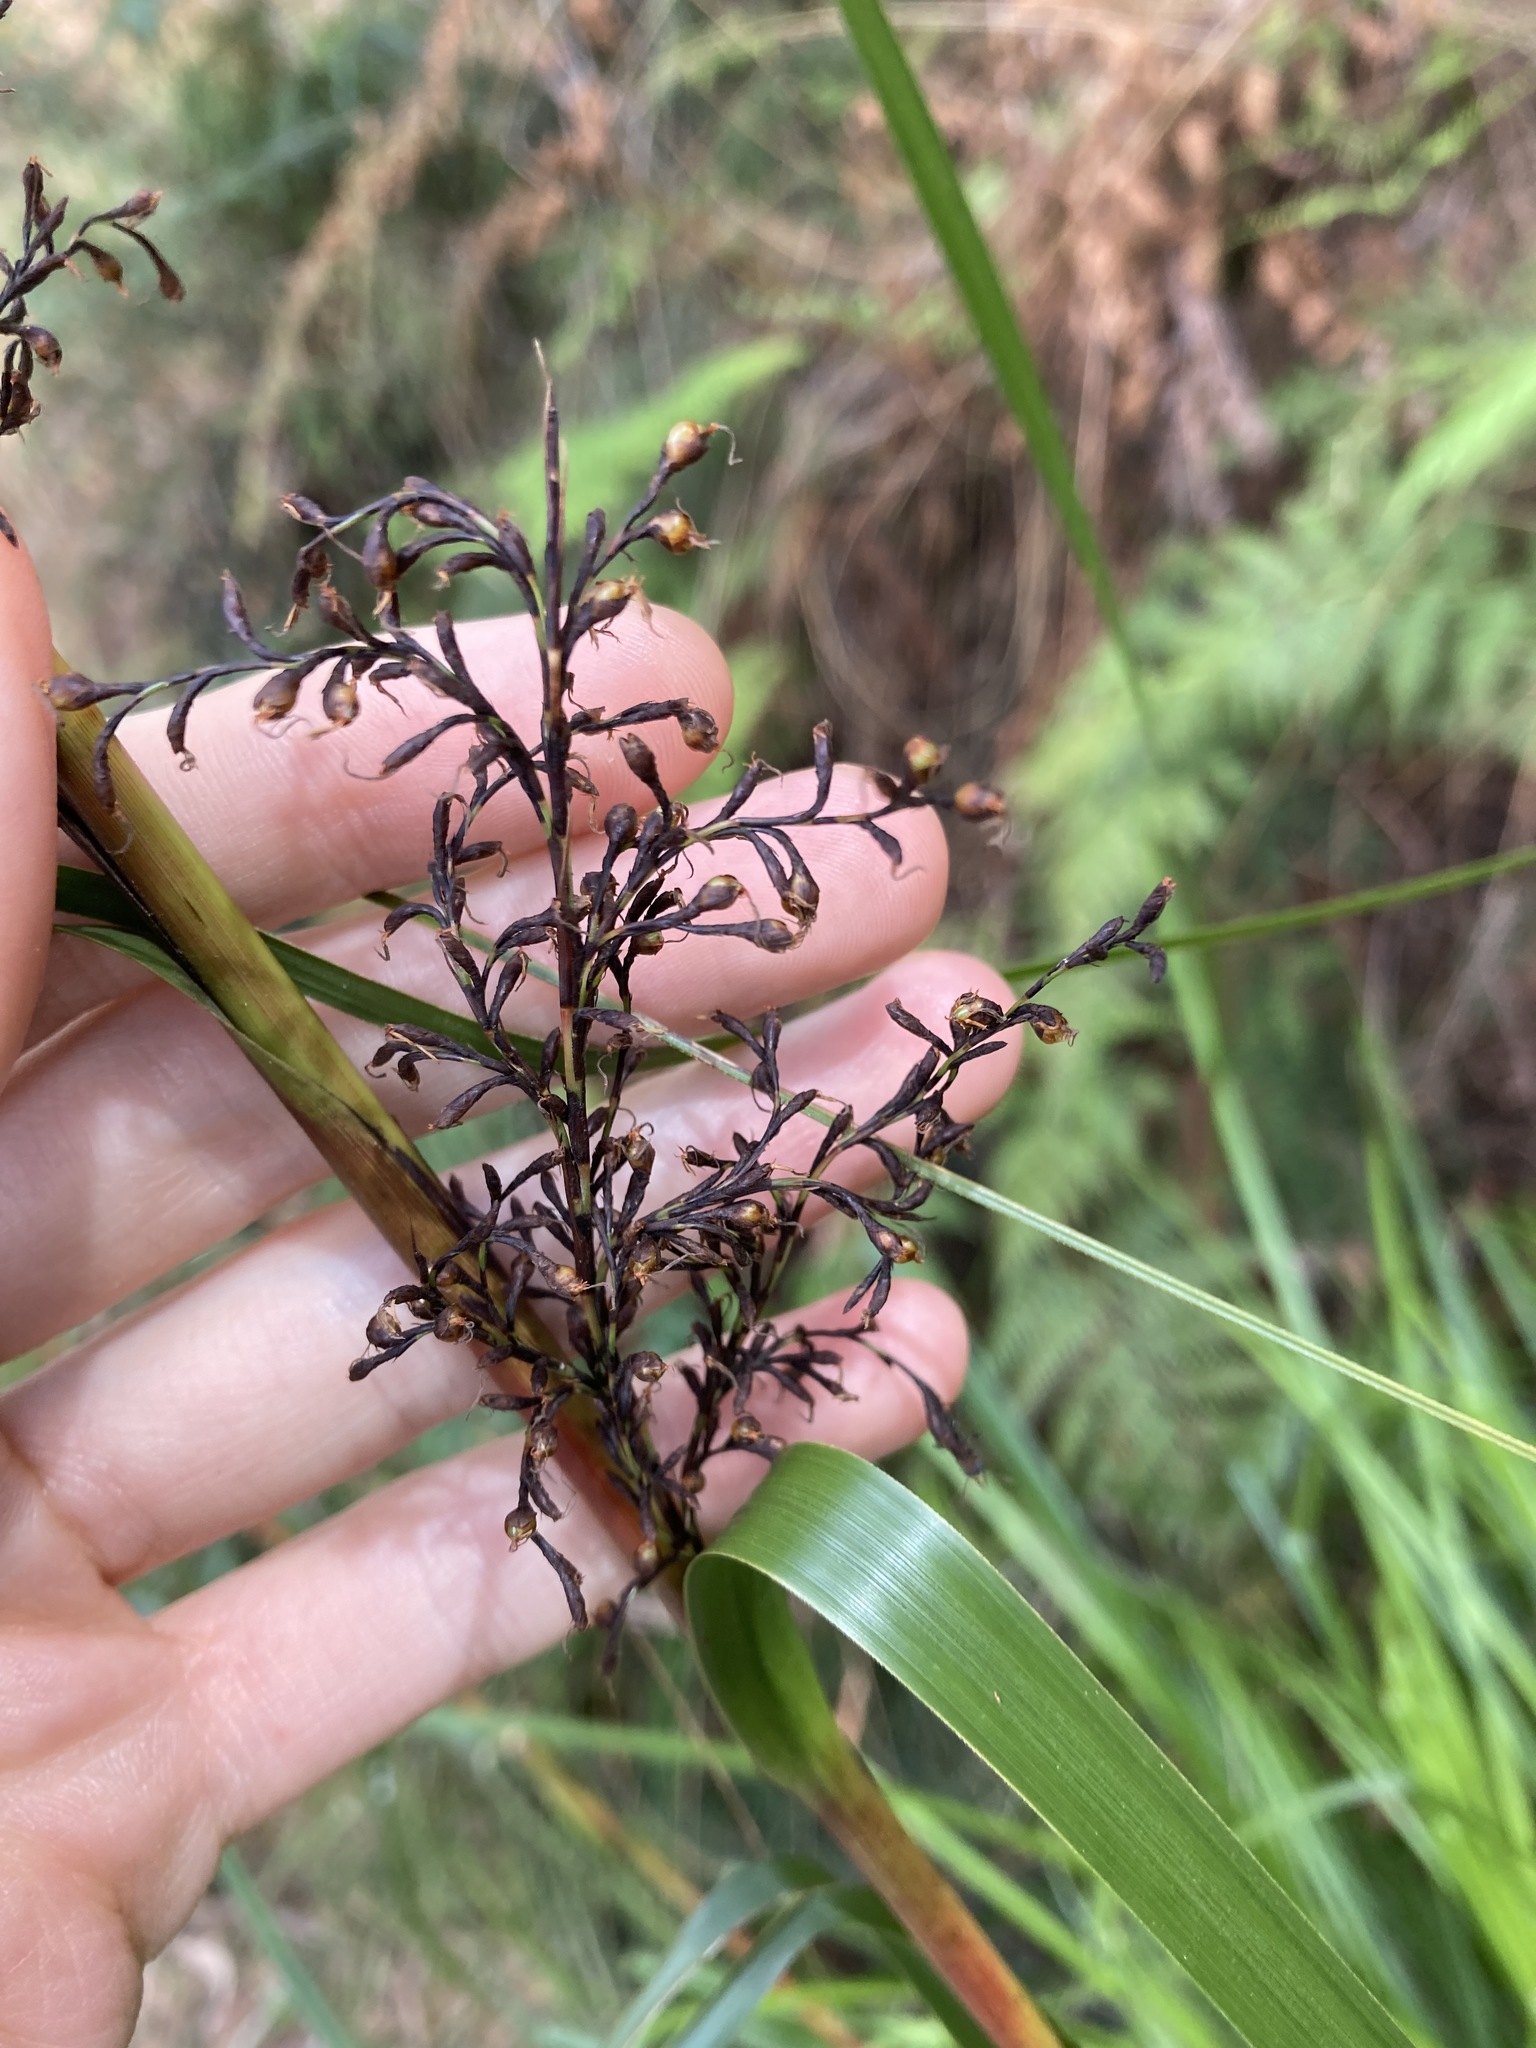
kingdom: Plantae
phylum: Tracheophyta
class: Liliopsida
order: Poales
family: Cyperaceae
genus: Gahnia
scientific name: Gahnia clarkei
